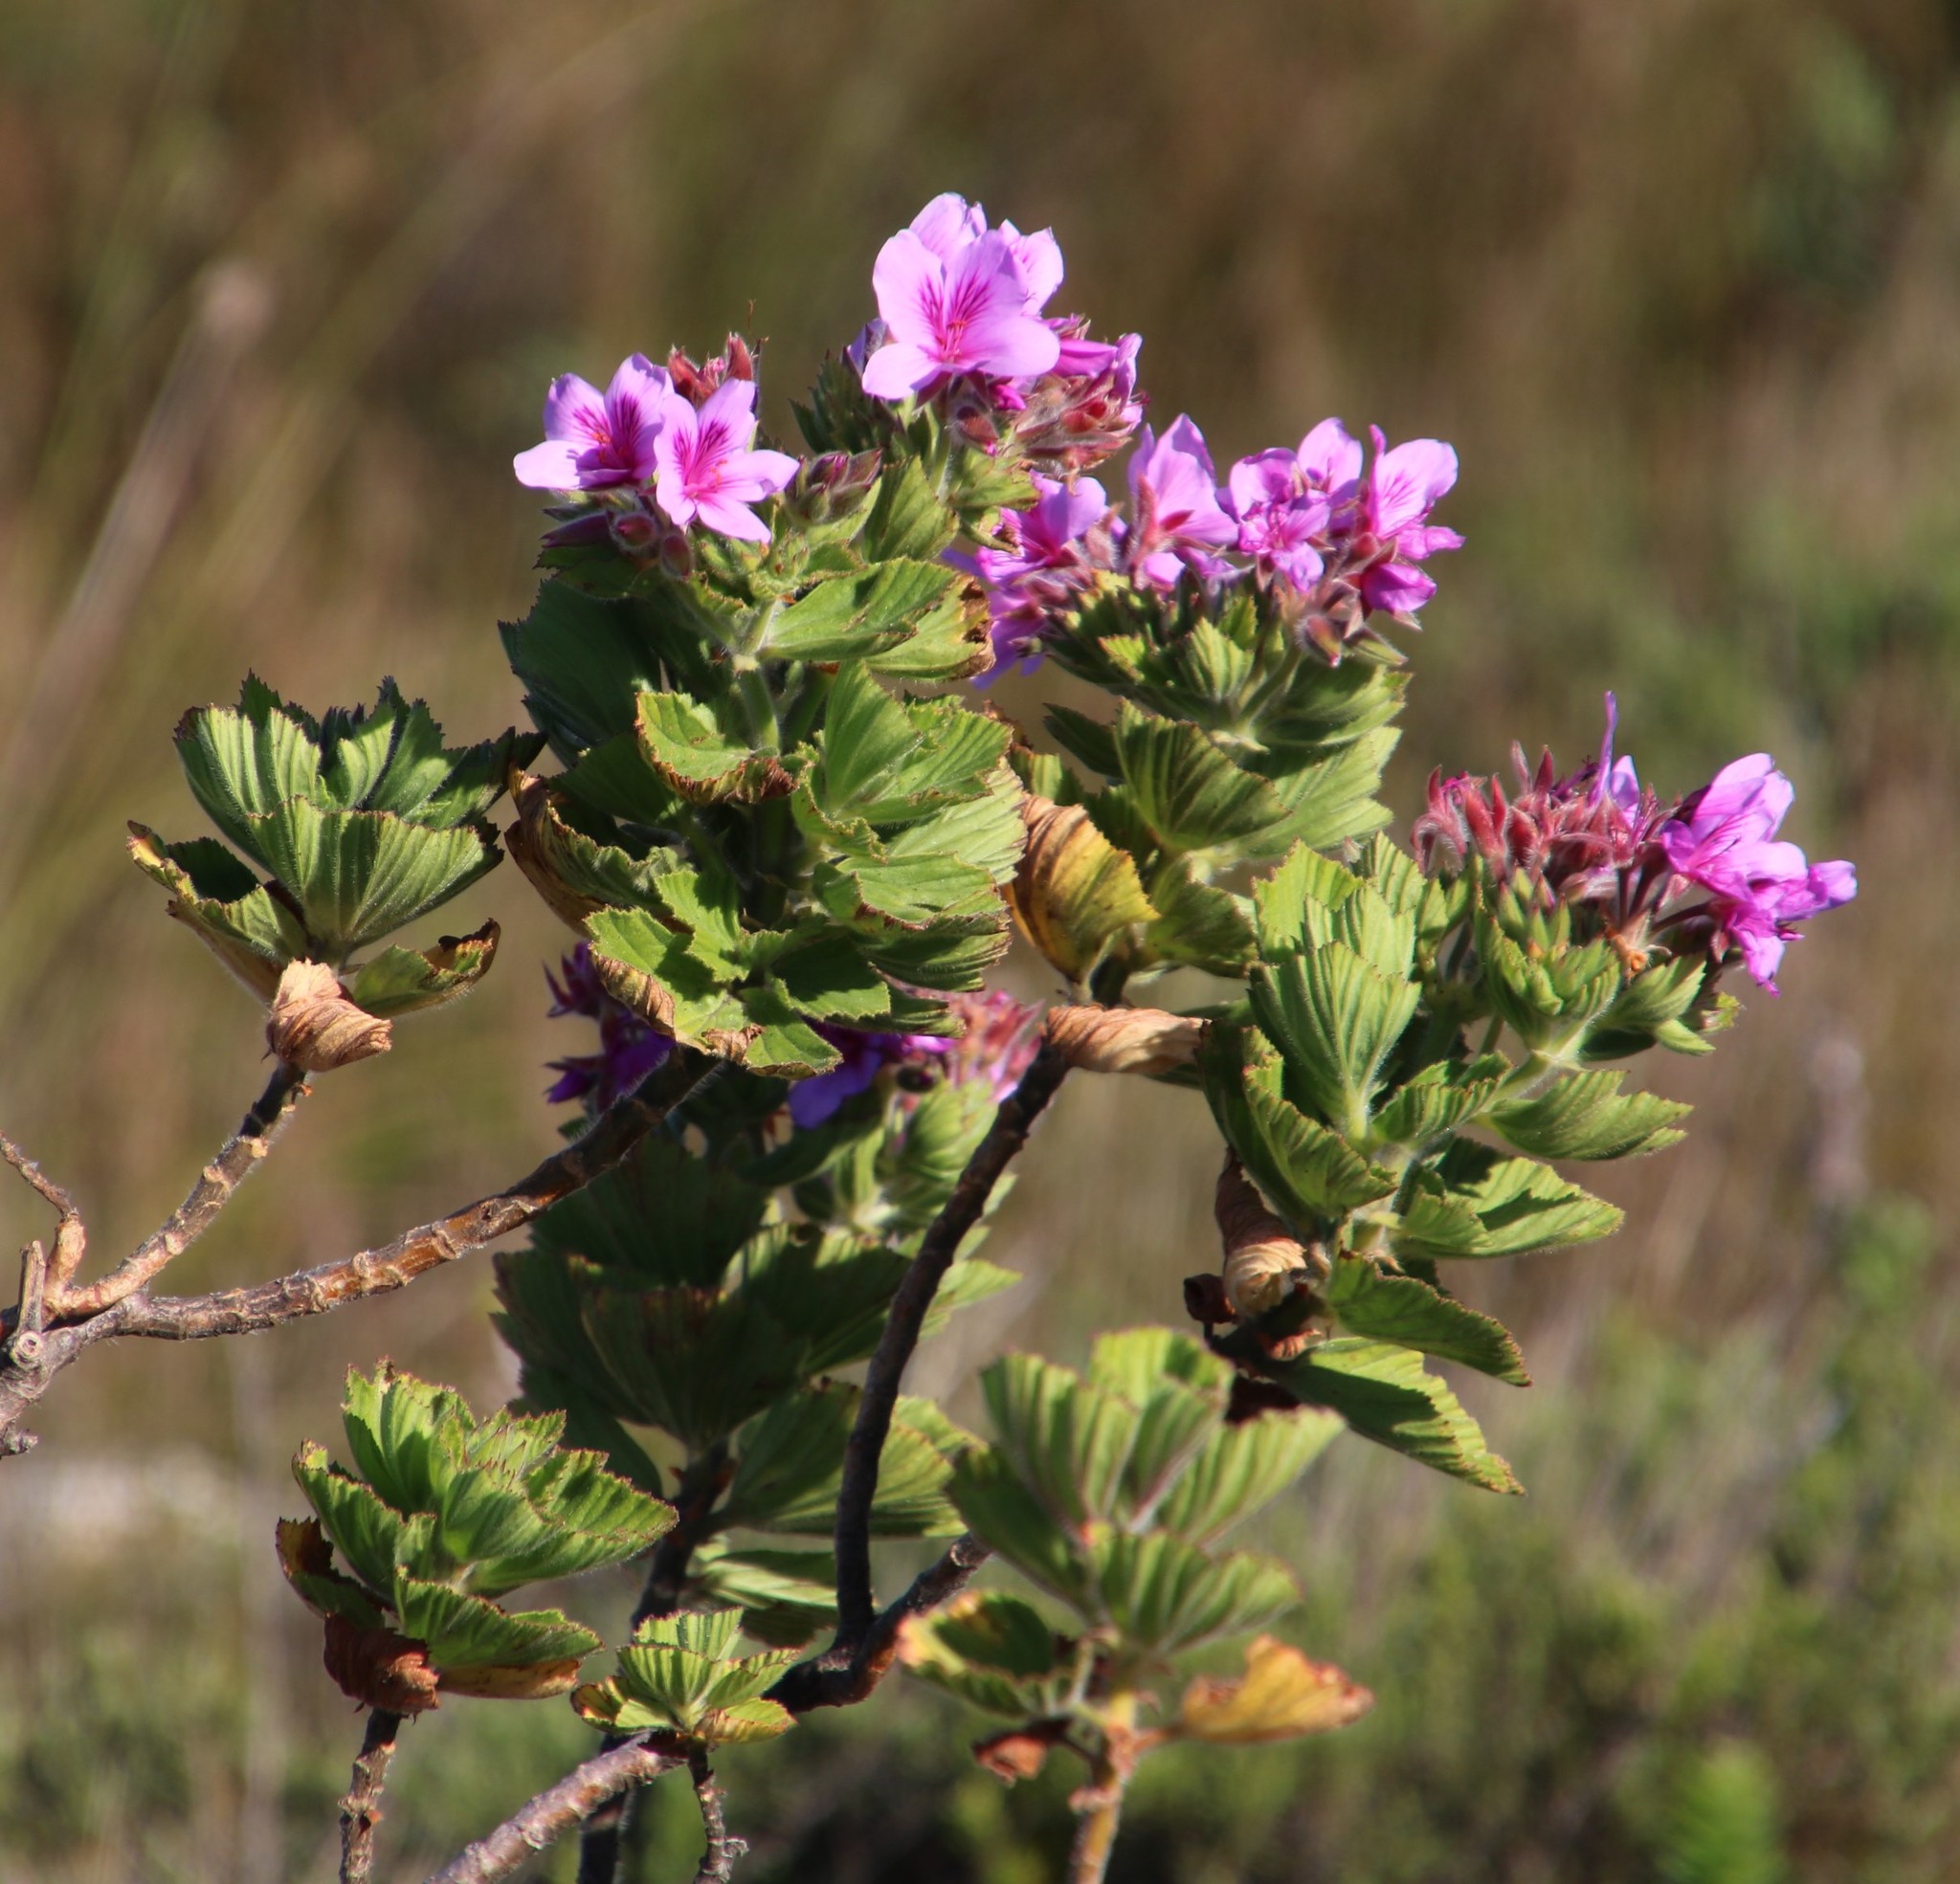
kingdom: Plantae
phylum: Tracheophyta
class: Magnoliopsida
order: Geraniales
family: Geraniaceae
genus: Pelargonium
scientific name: Pelargonium cucullatum
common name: Tree pelargonium
